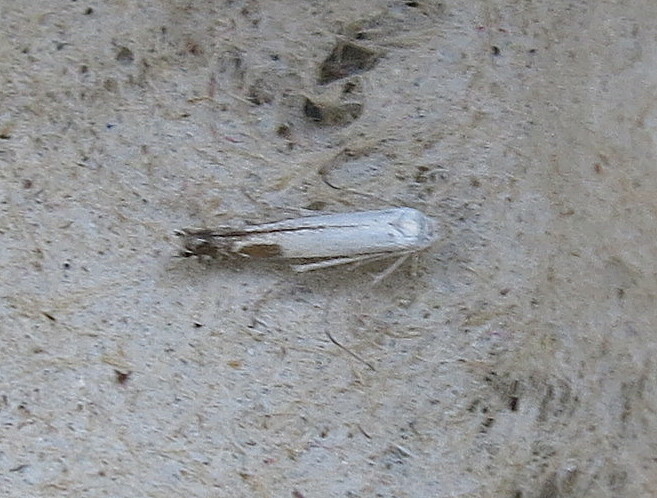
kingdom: Animalia
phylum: Arthropoda
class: Insecta
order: Lepidoptera
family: Lyonetiidae
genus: Lyonetia
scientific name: Lyonetia clerkella
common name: Apple leaf miner
